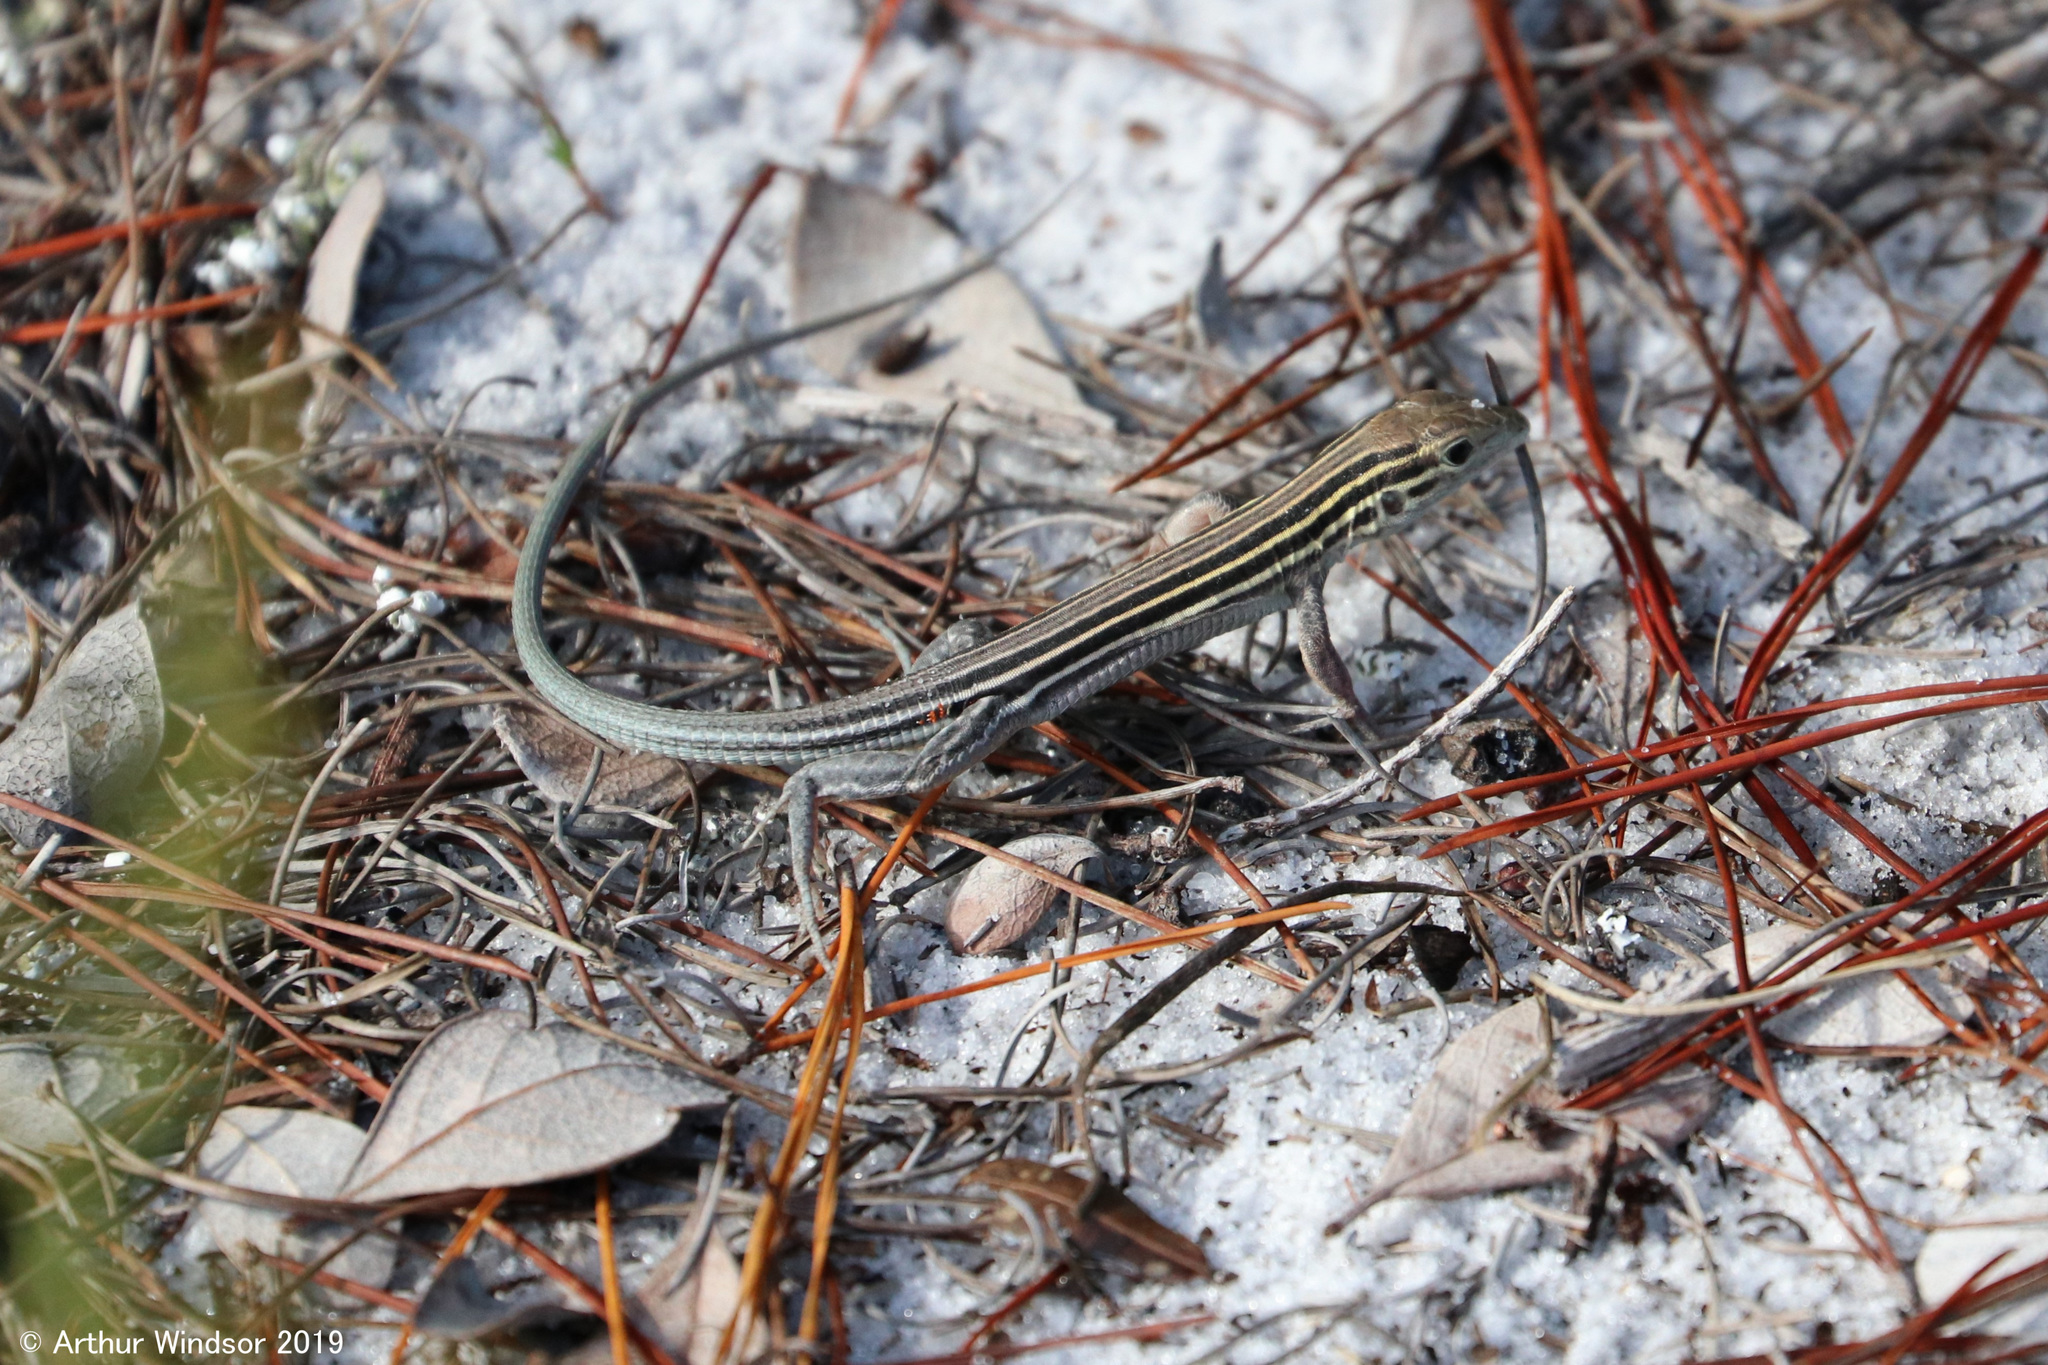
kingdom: Animalia
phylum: Chordata
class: Squamata
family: Teiidae
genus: Aspidoscelis
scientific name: Aspidoscelis sexlineatus
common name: Six-lined racerunner
